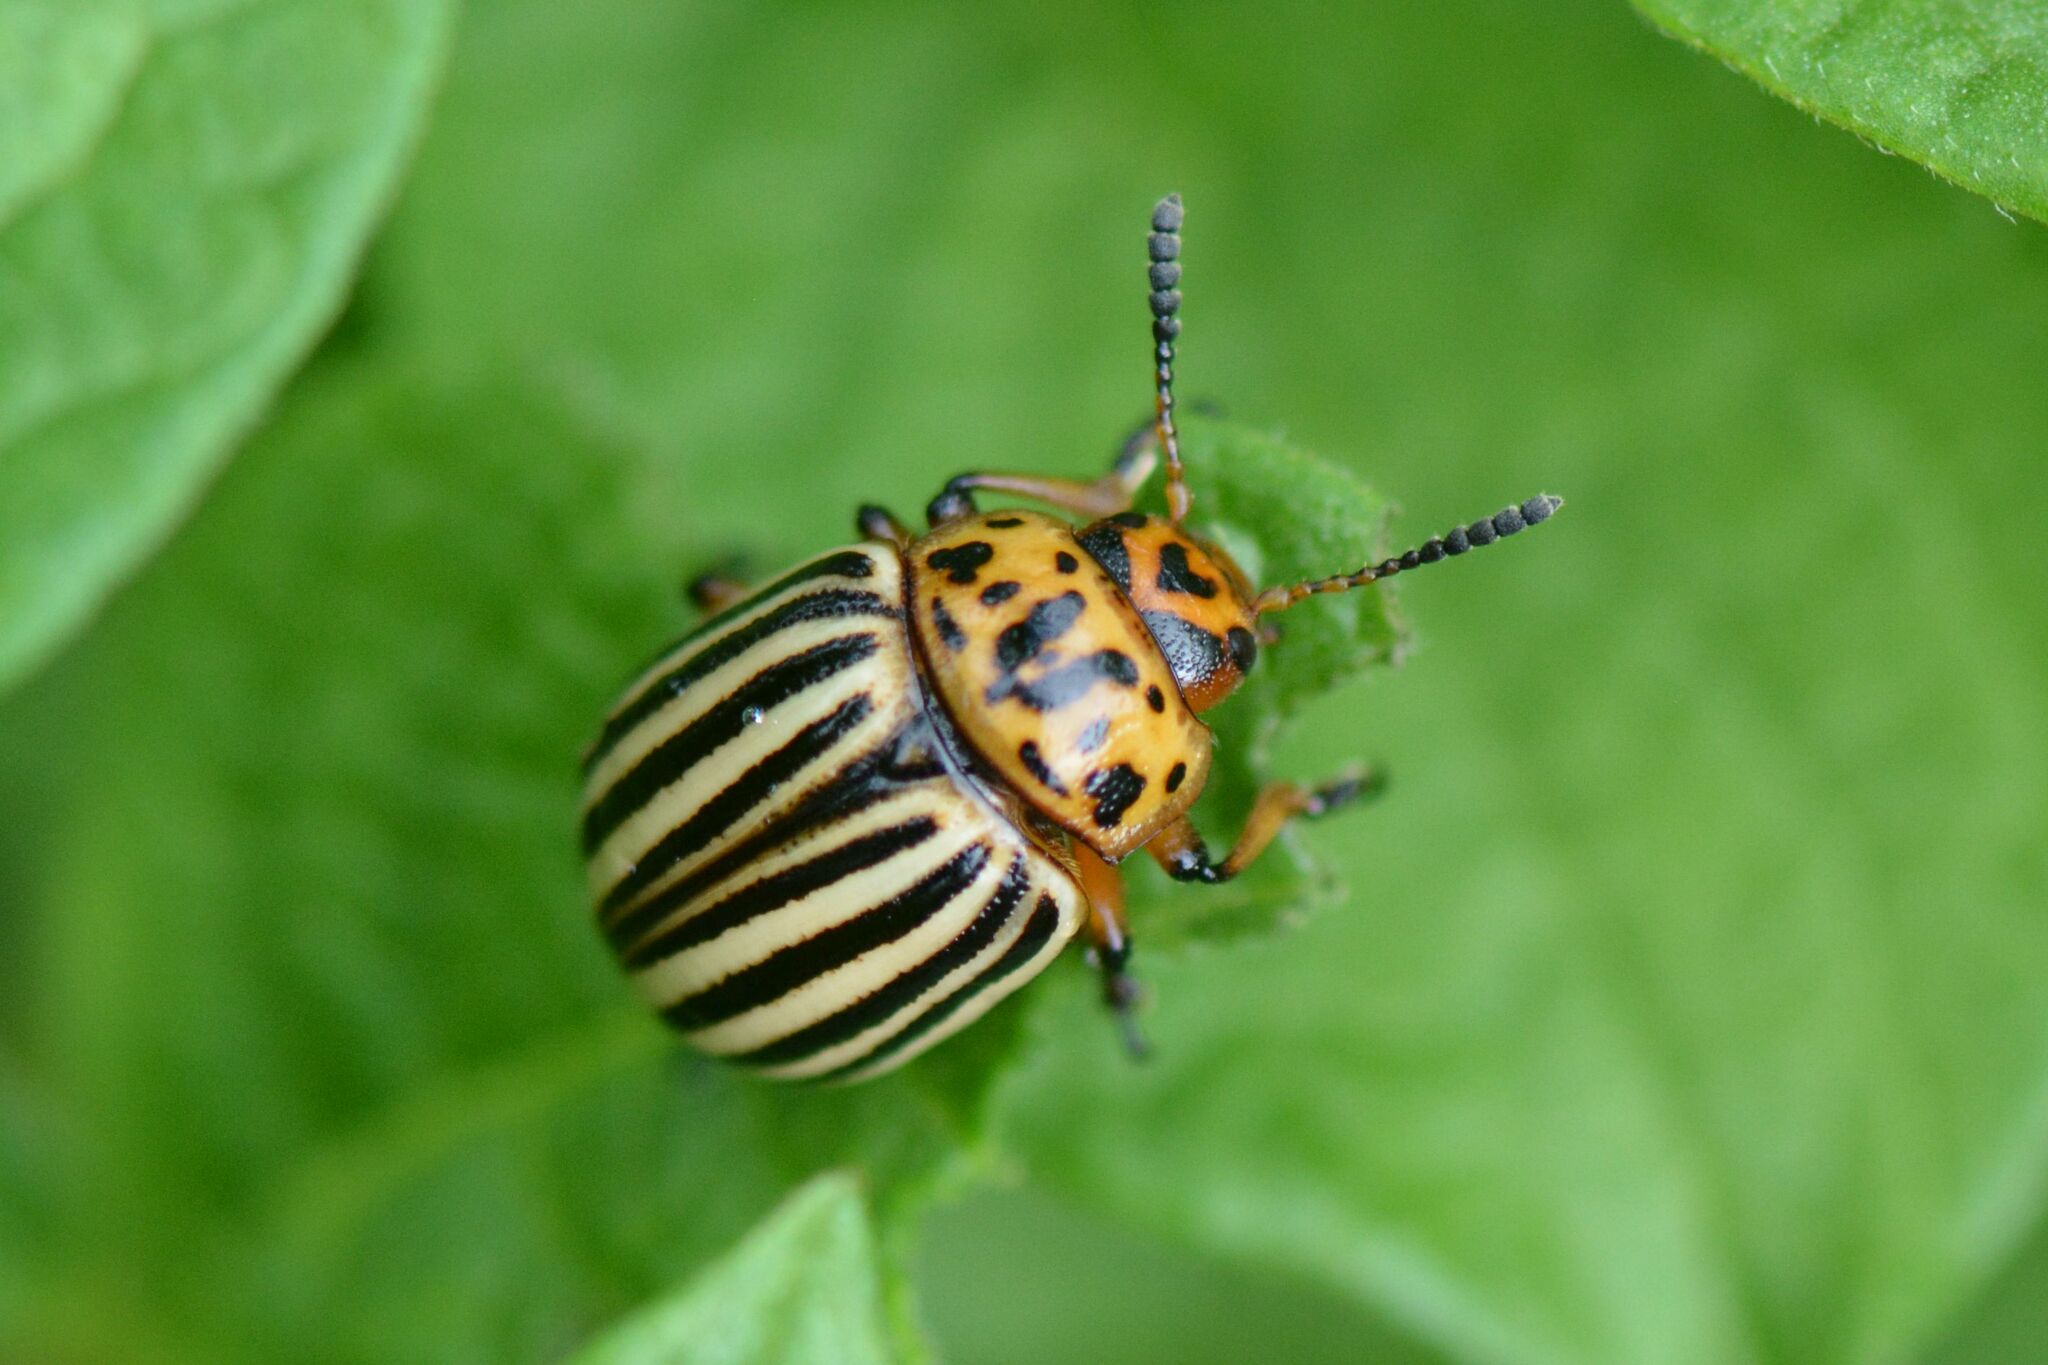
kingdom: Animalia
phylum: Arthropoda
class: Insecta
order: Coleoptera
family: Chrysomelidae
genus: Leptinotarsa
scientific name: Leptinotarsa decemlineata
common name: Colorado potato beetle
